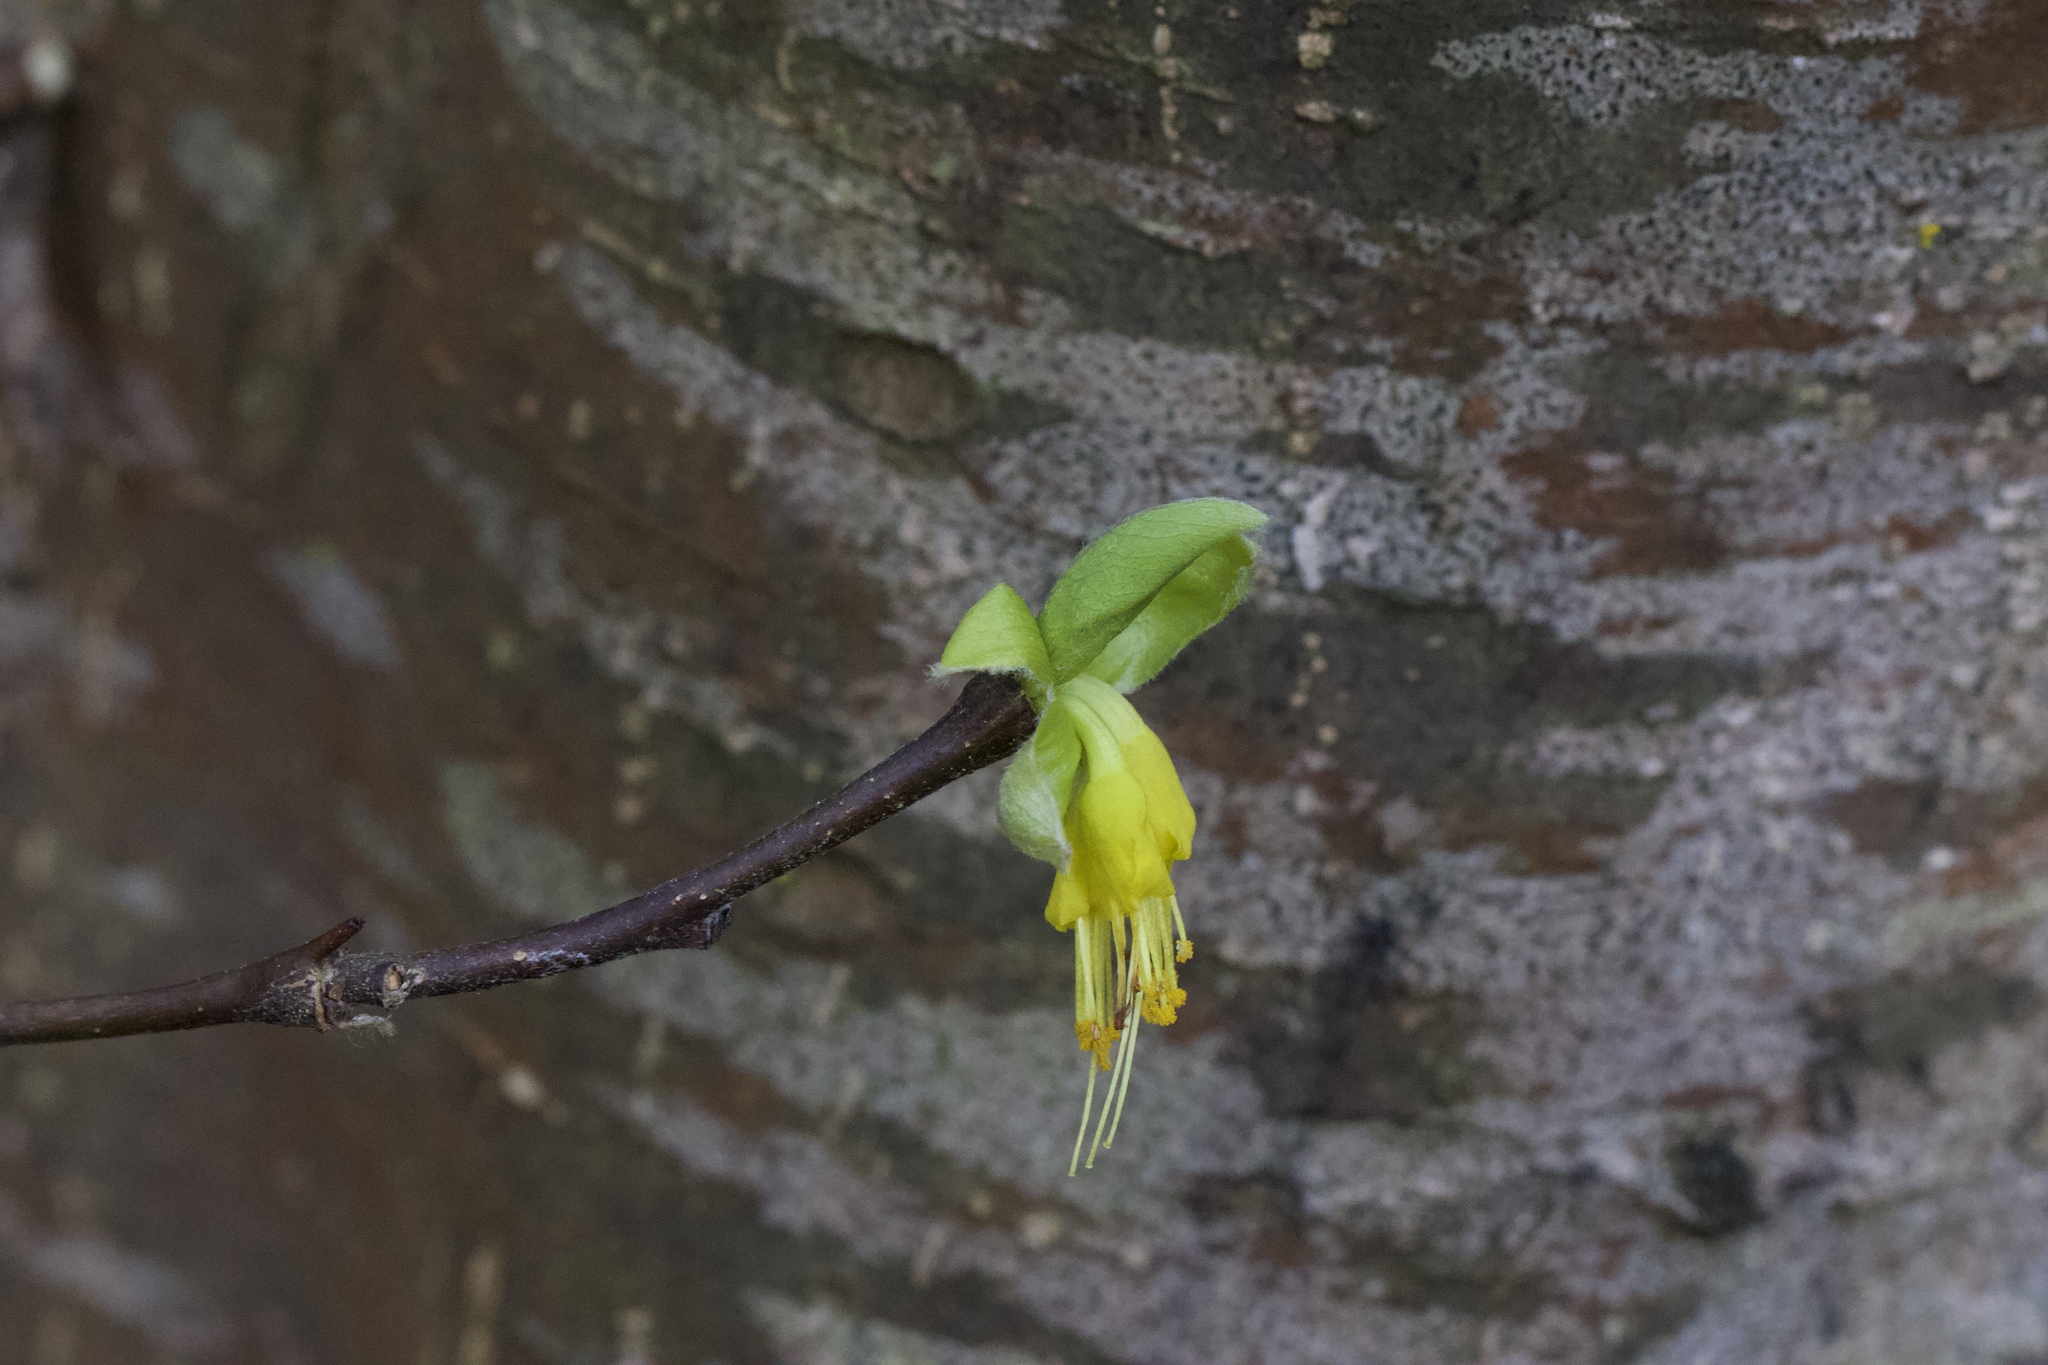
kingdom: Plantae
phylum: Tracheophyta
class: Magnoliopsida
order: Malvales
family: Thymelaeaceae
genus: Dirca
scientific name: Dirca occidentalis
